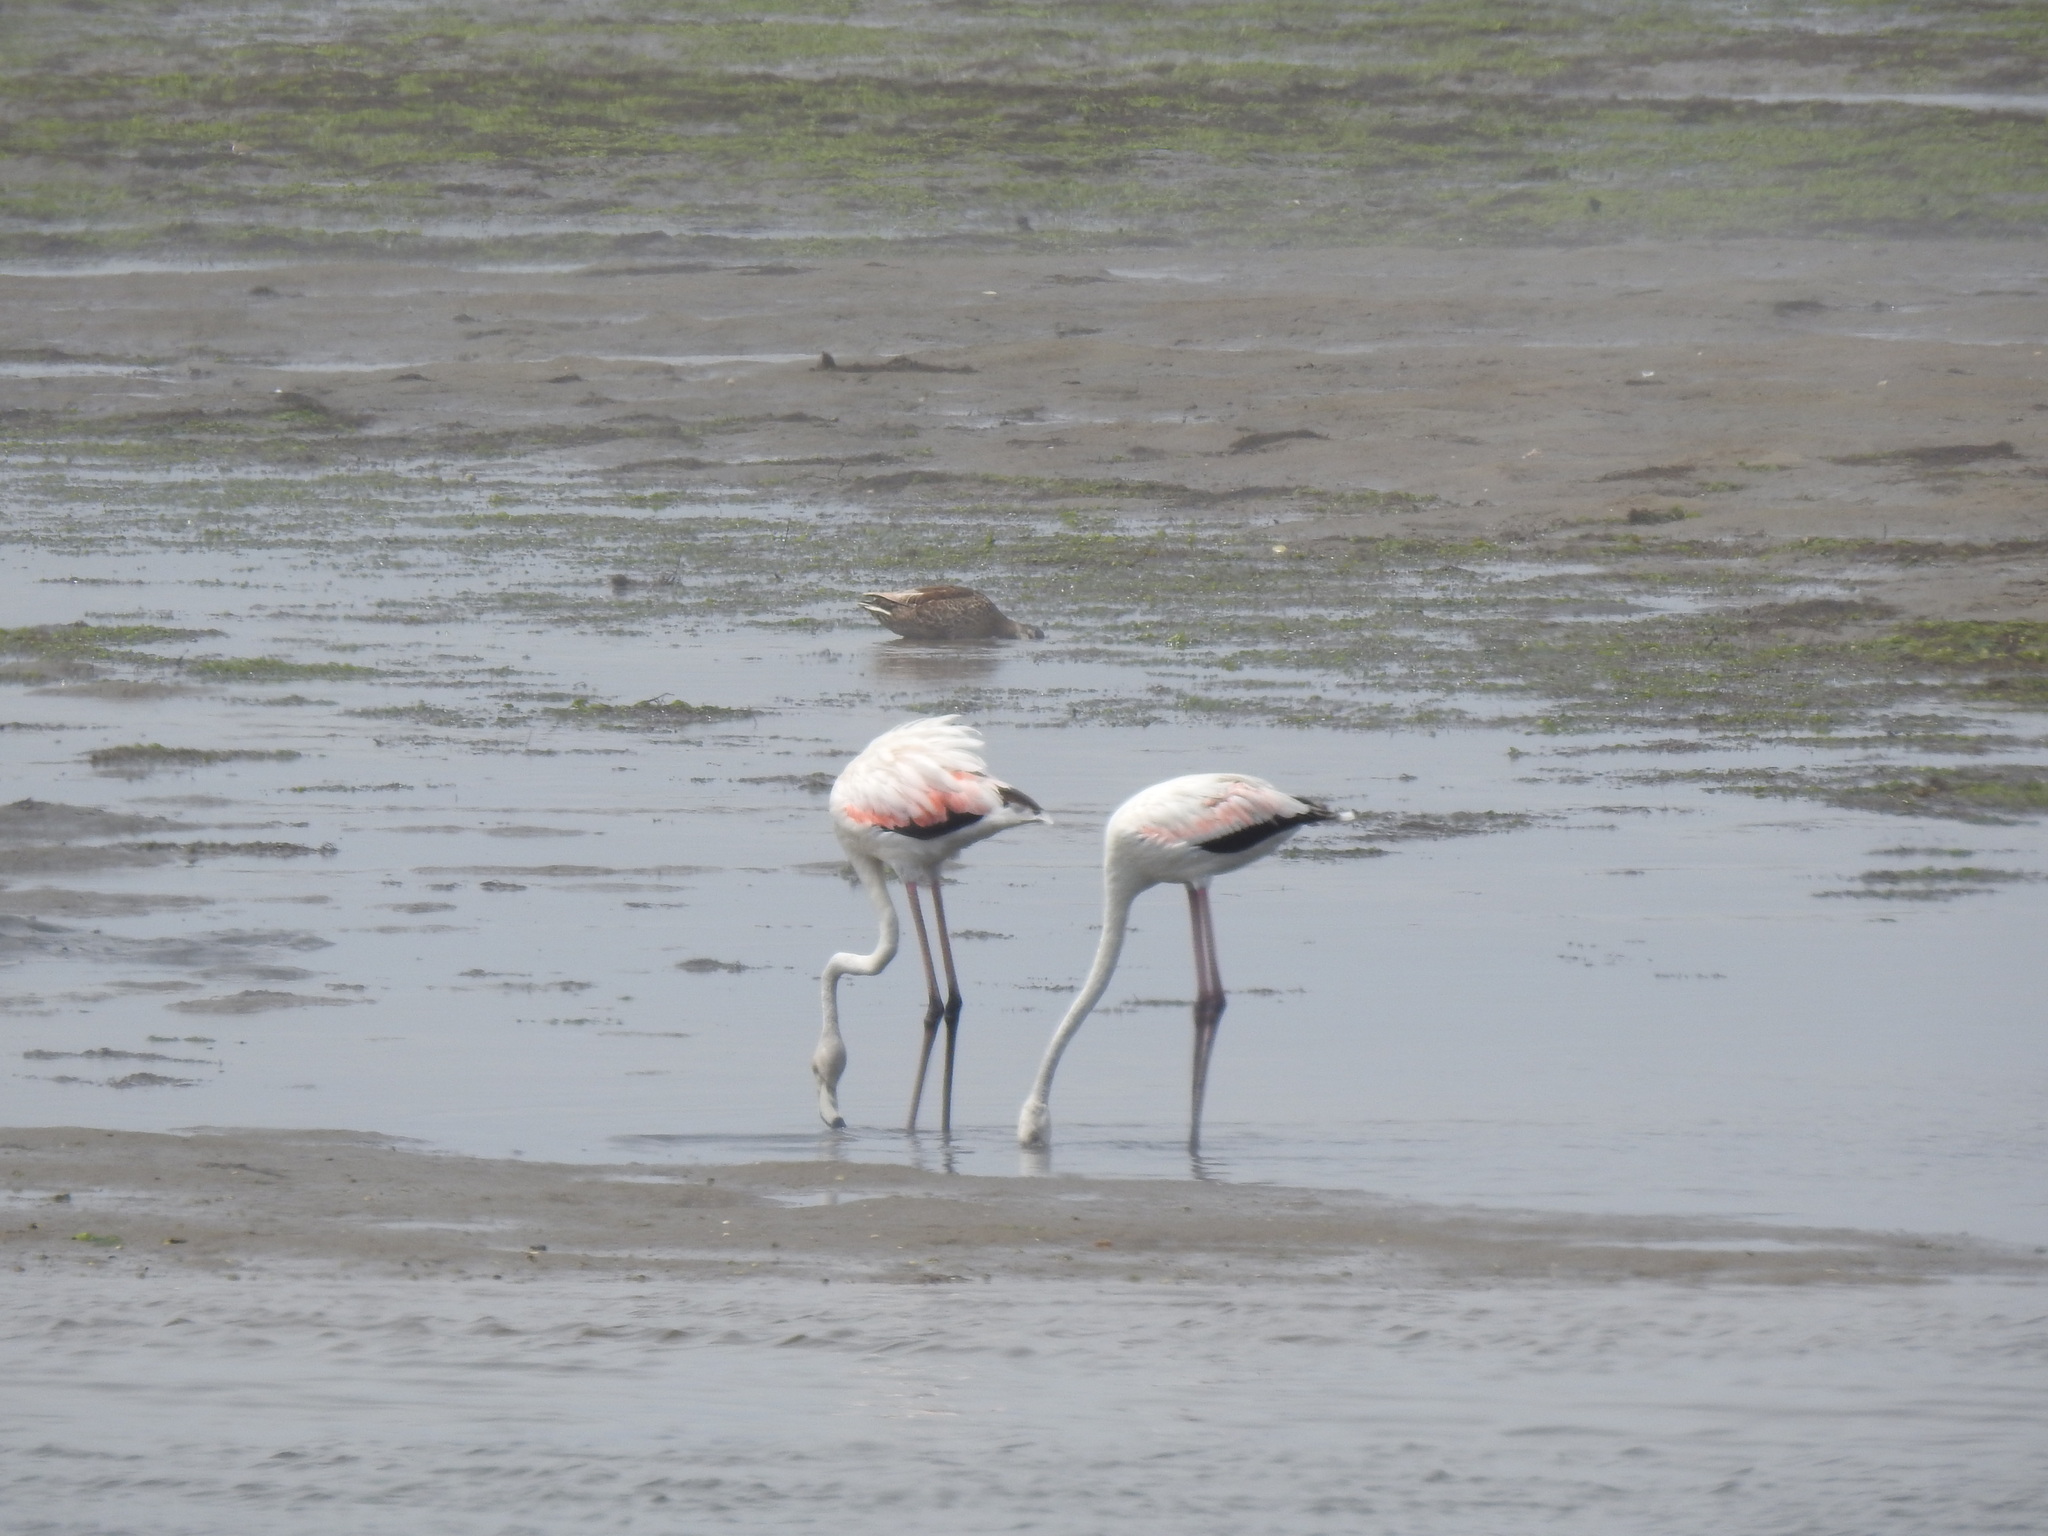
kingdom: Animalia
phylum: Chordata
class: Aves
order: Phoenicopteriformes
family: Phoenicopteridae
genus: Phoenicopterus
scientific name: Phoenicopterus roseus
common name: Greater flamingo
